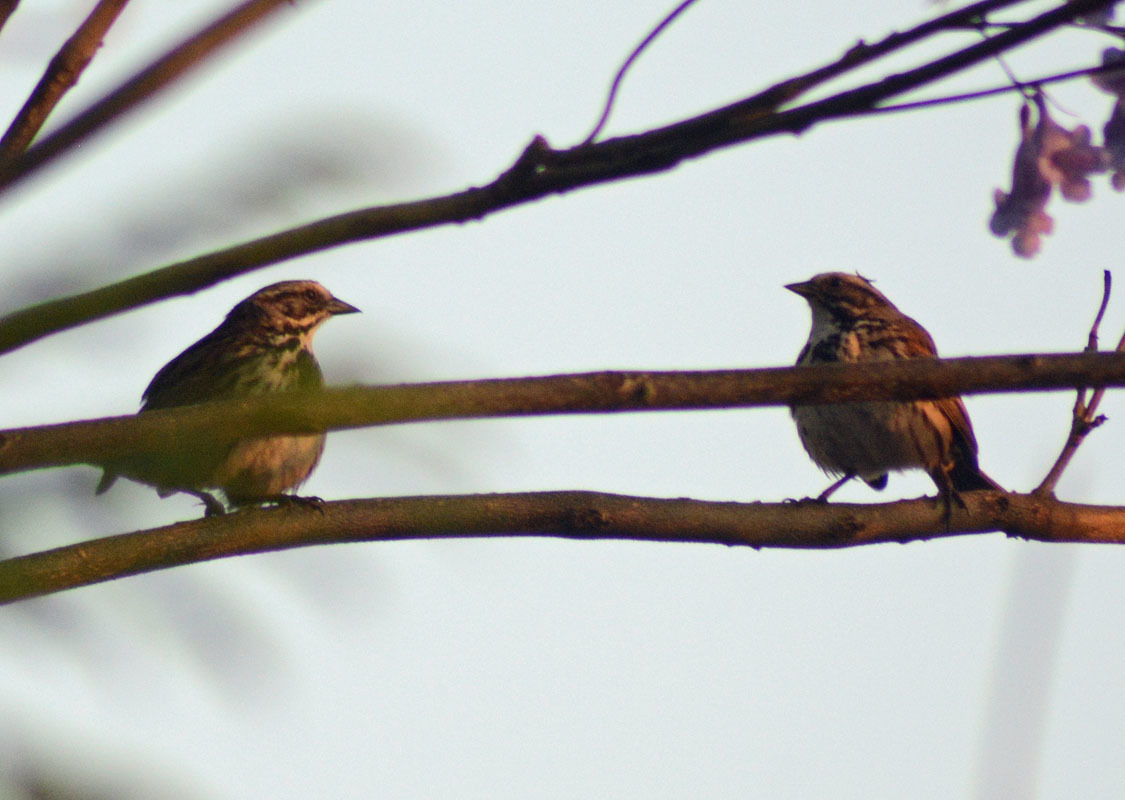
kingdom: Animalia
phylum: Chordata
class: Aves
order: Passeriformes
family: Passerellidae
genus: Melospiza
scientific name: Melospiza melodia
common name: Song sparrow
